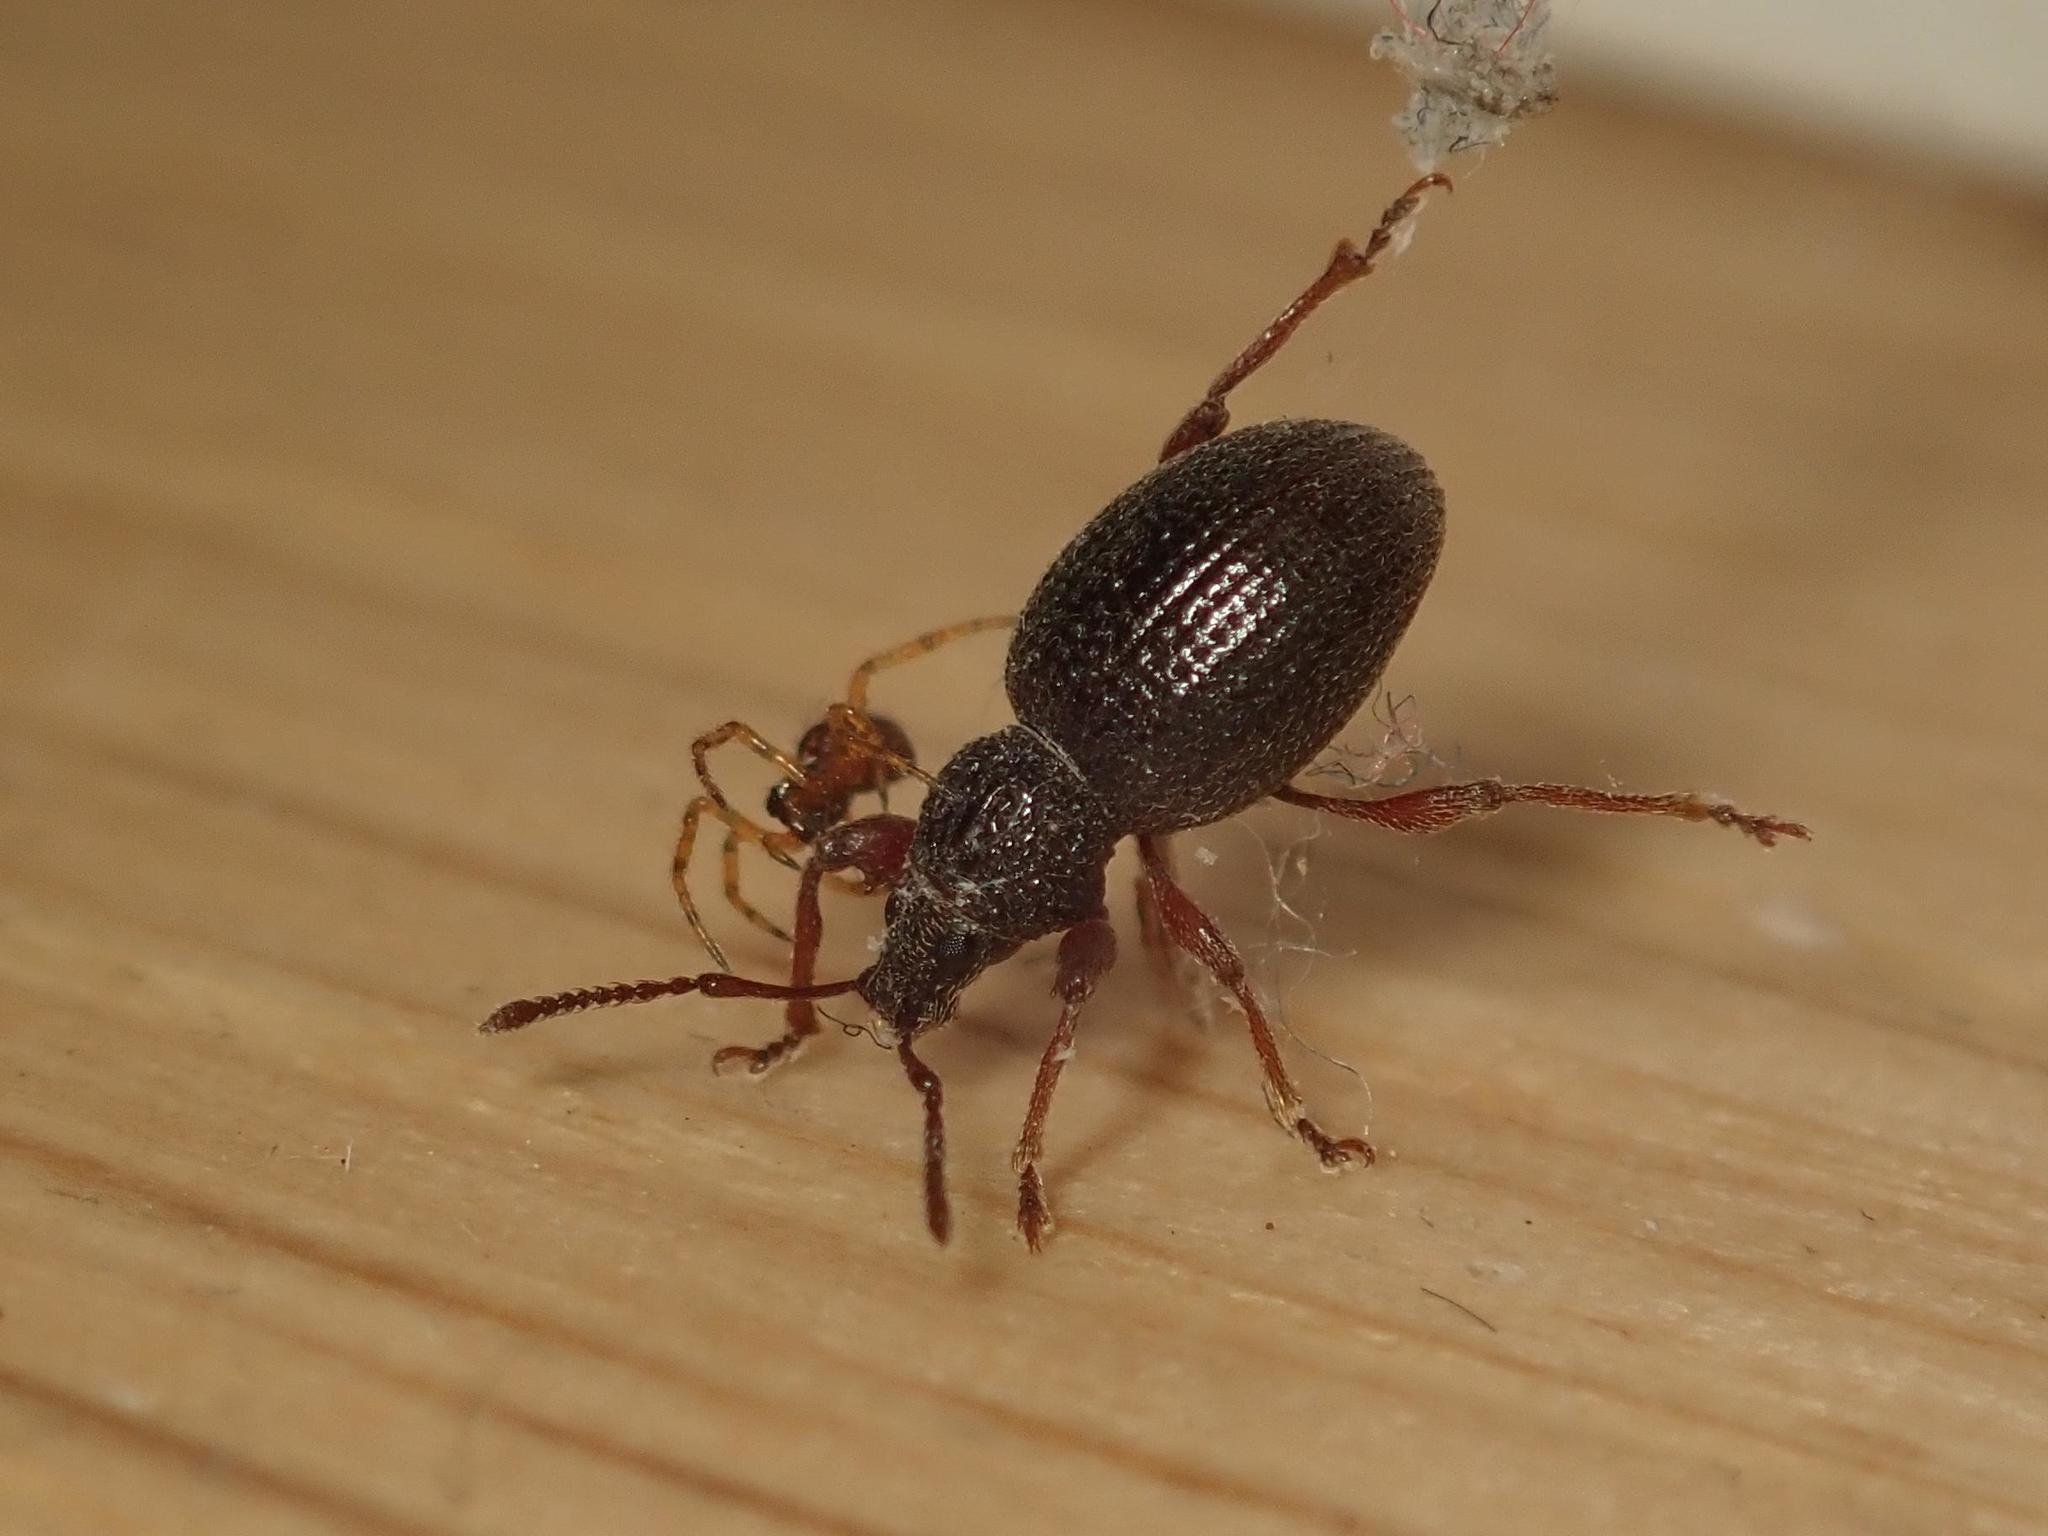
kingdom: Animalia
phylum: Arthropoda
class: Insecta
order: Coleoptera
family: Curculionidae
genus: Otiorhynchus
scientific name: Otiorhynchus ovatus
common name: Strawberry root weevil
